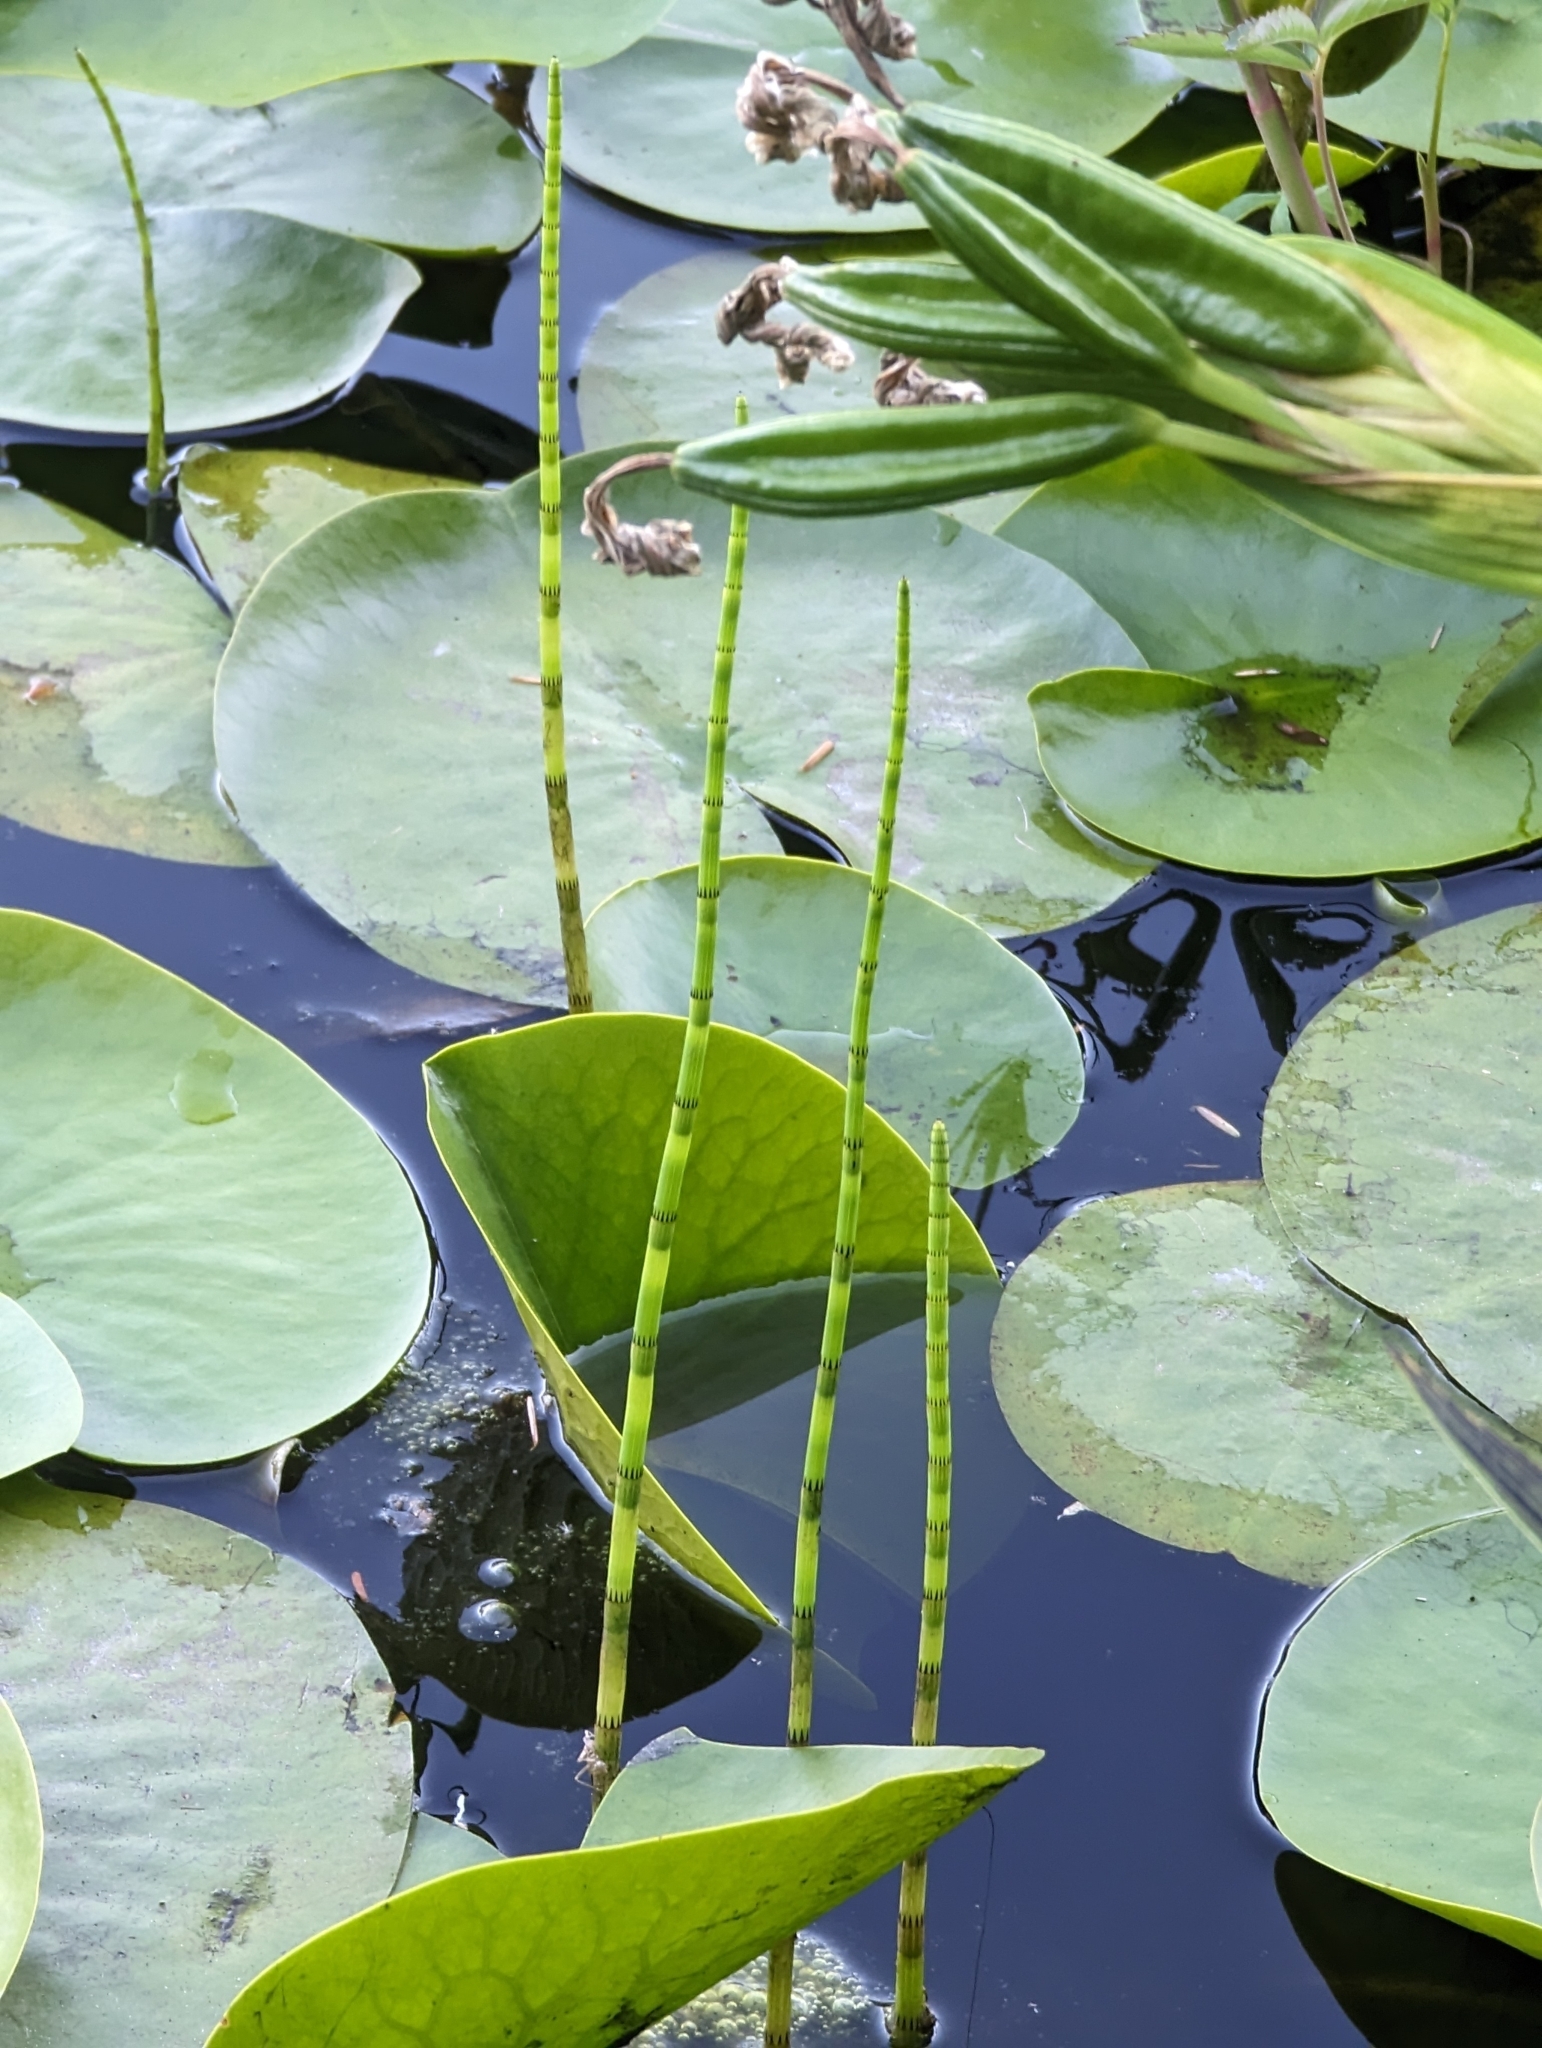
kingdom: Plantae
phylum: Tracheophyta
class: Polypodiopsida
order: Equisetales
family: Equisetaceae
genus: Equisetum
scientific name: Equisetum fluviatile
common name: Water horsetail
